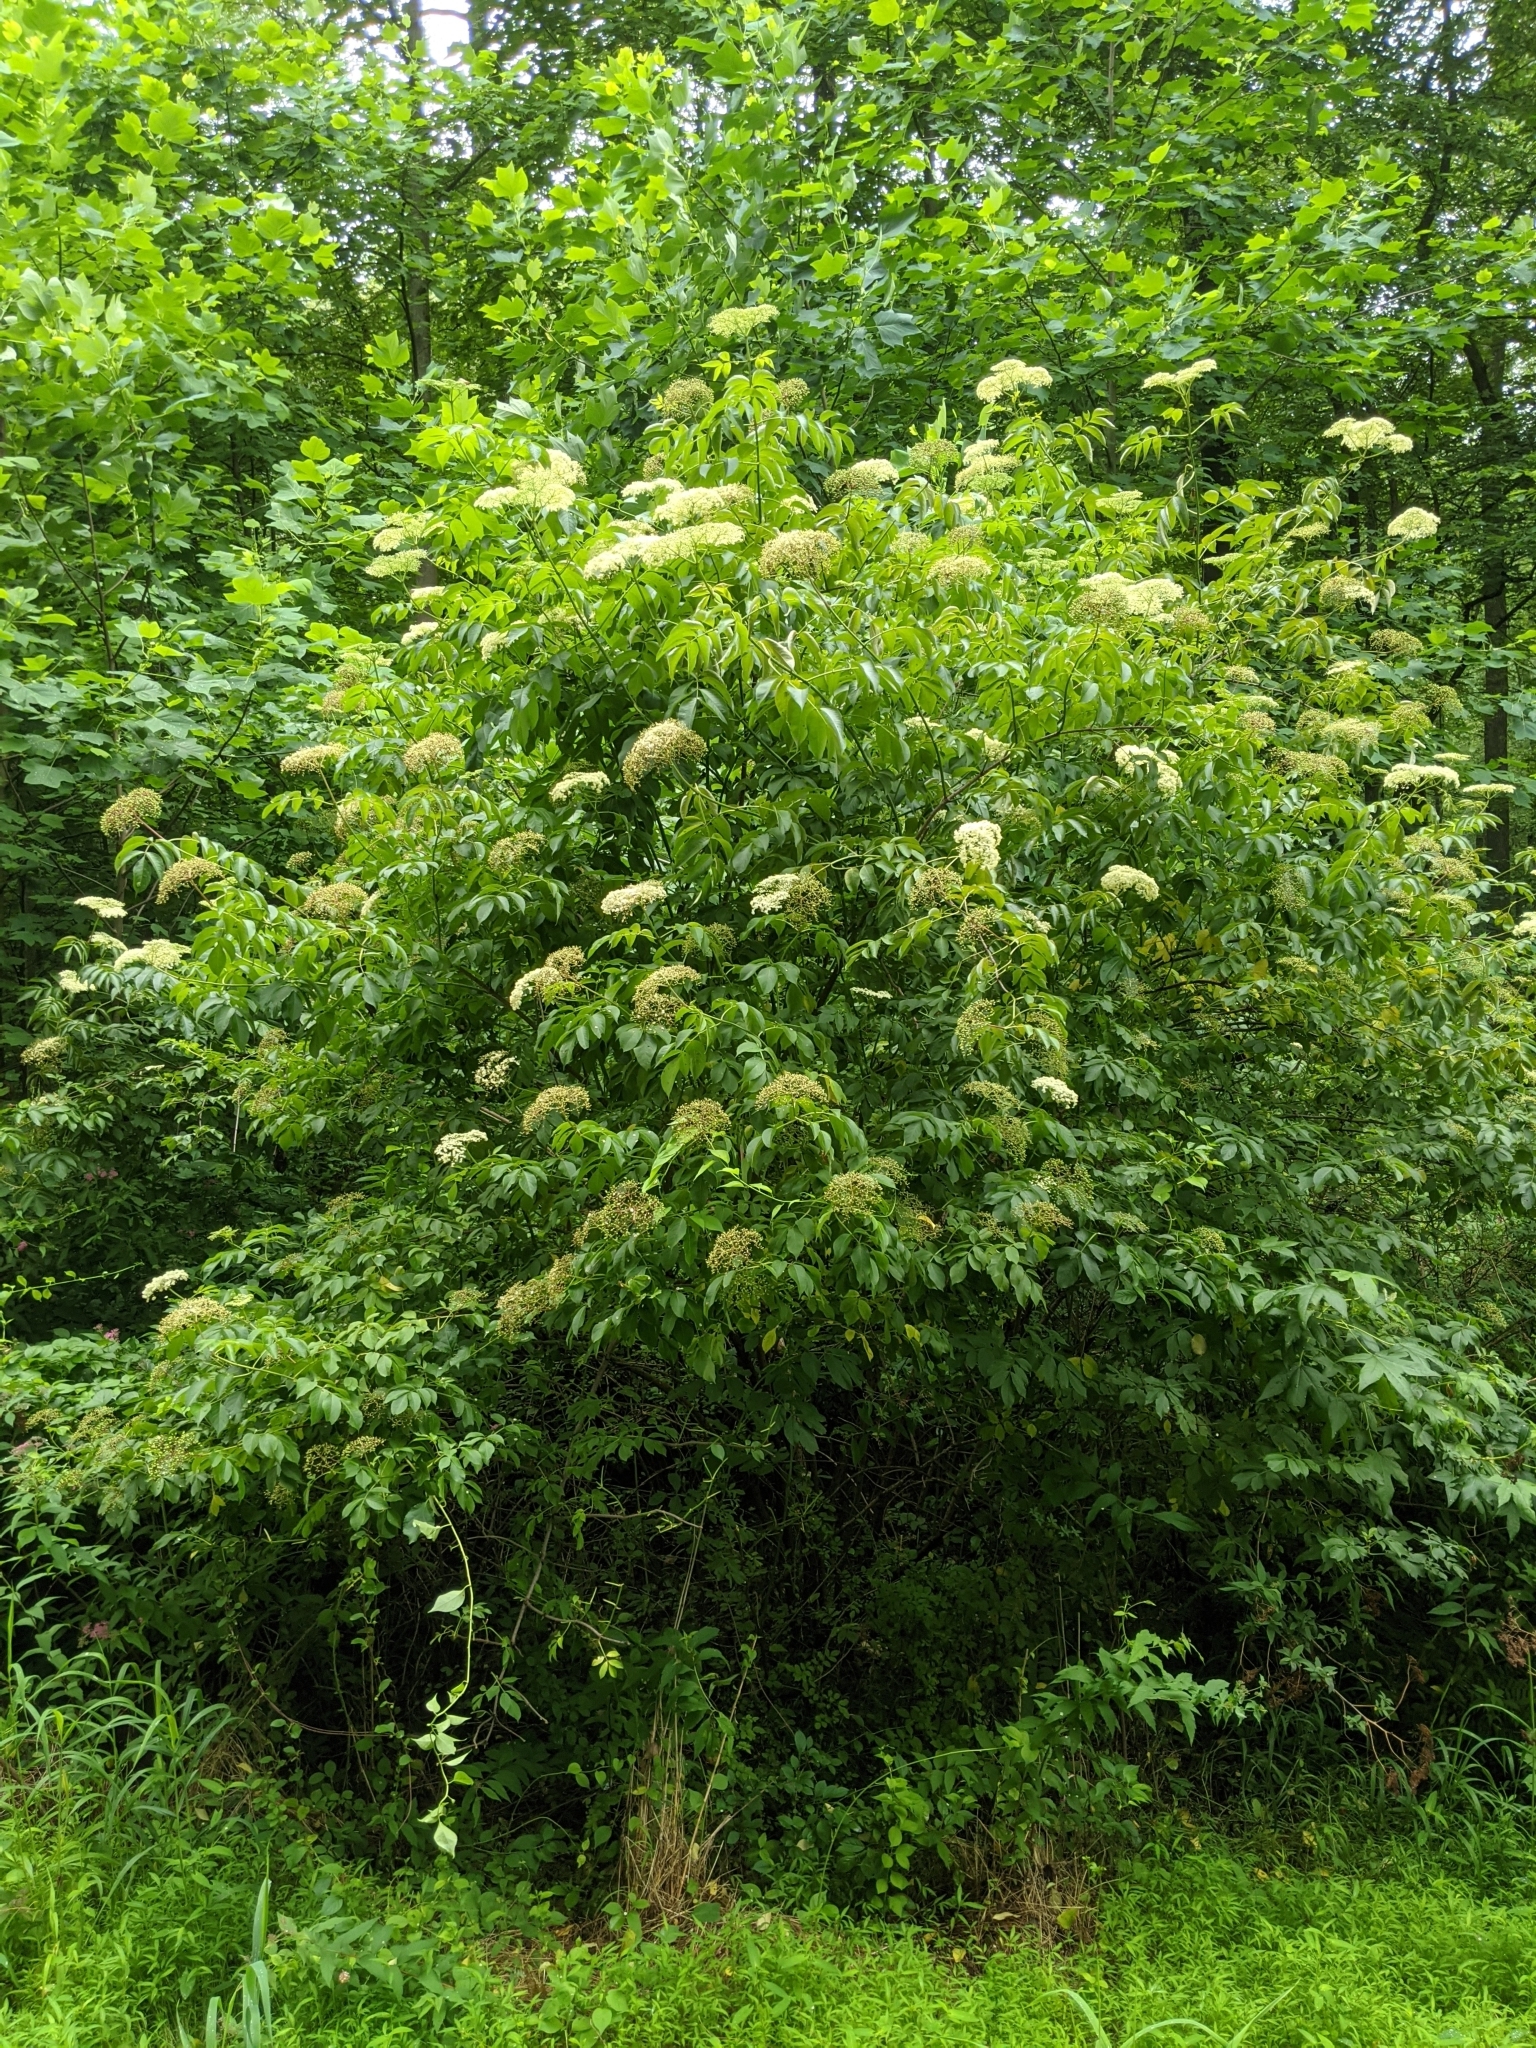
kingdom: Plantae
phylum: Tracheophyta
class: Magnoliopsida
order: Dipsacales
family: Viburnaceae
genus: Sambucus
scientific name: Sambucus canadensis
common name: American elder
